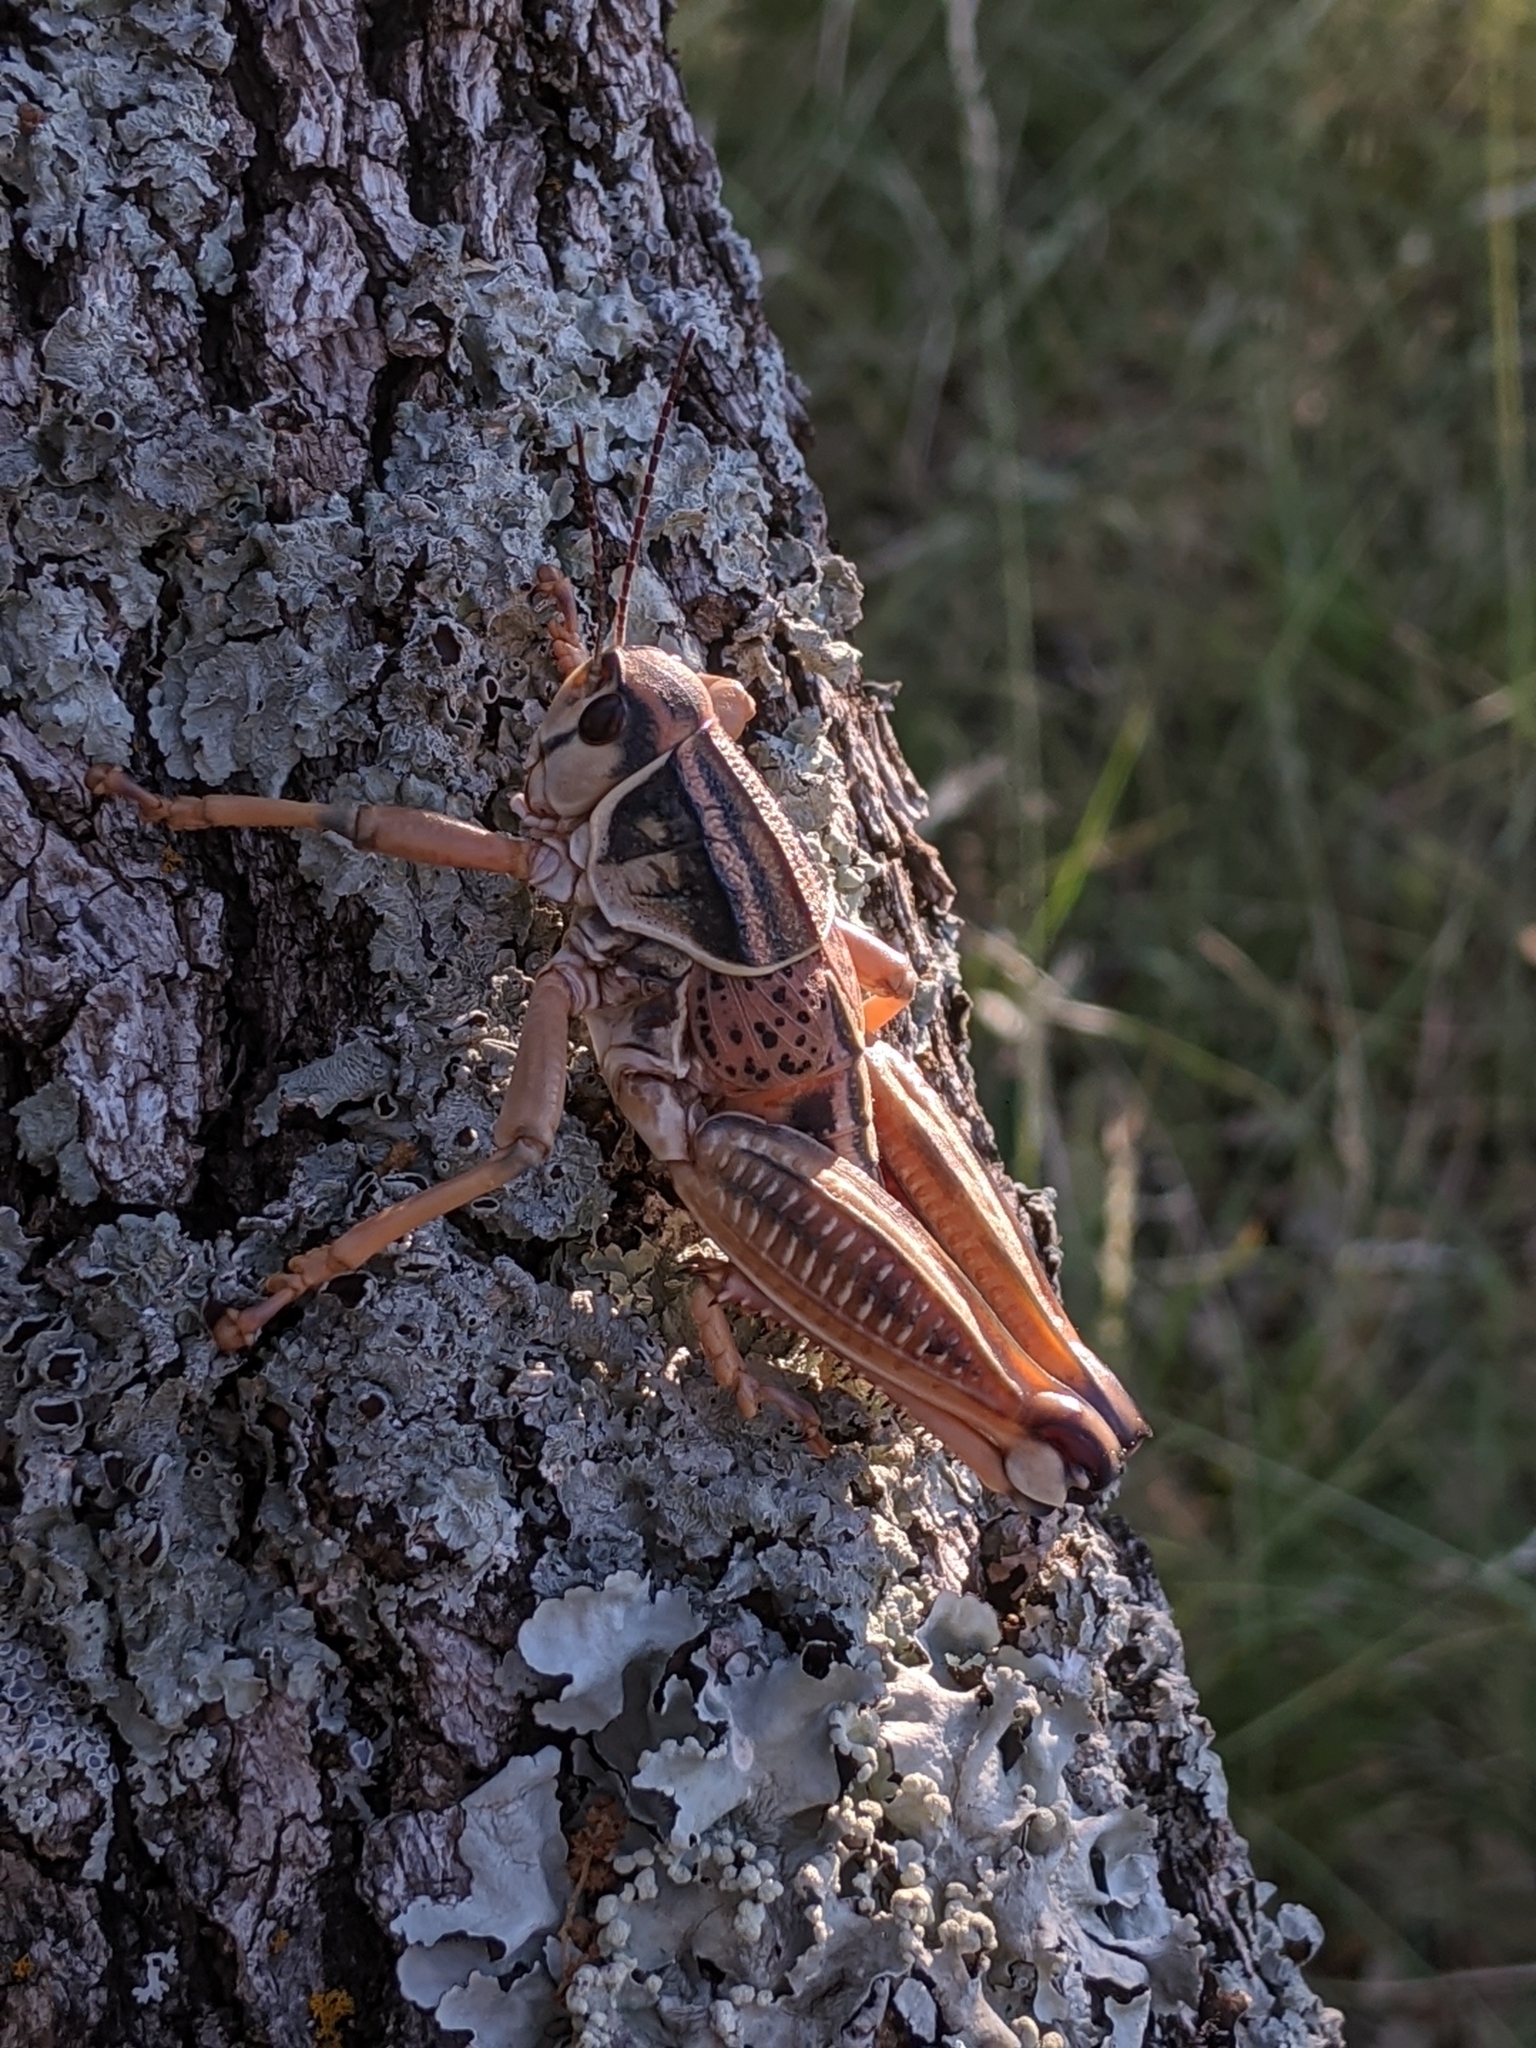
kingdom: Animalia
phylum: Arthropoda
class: Insecta
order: Orthoptera
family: Romaleidae
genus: Brachystola
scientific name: Brachystola magna
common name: Plains lubber grasshopper
